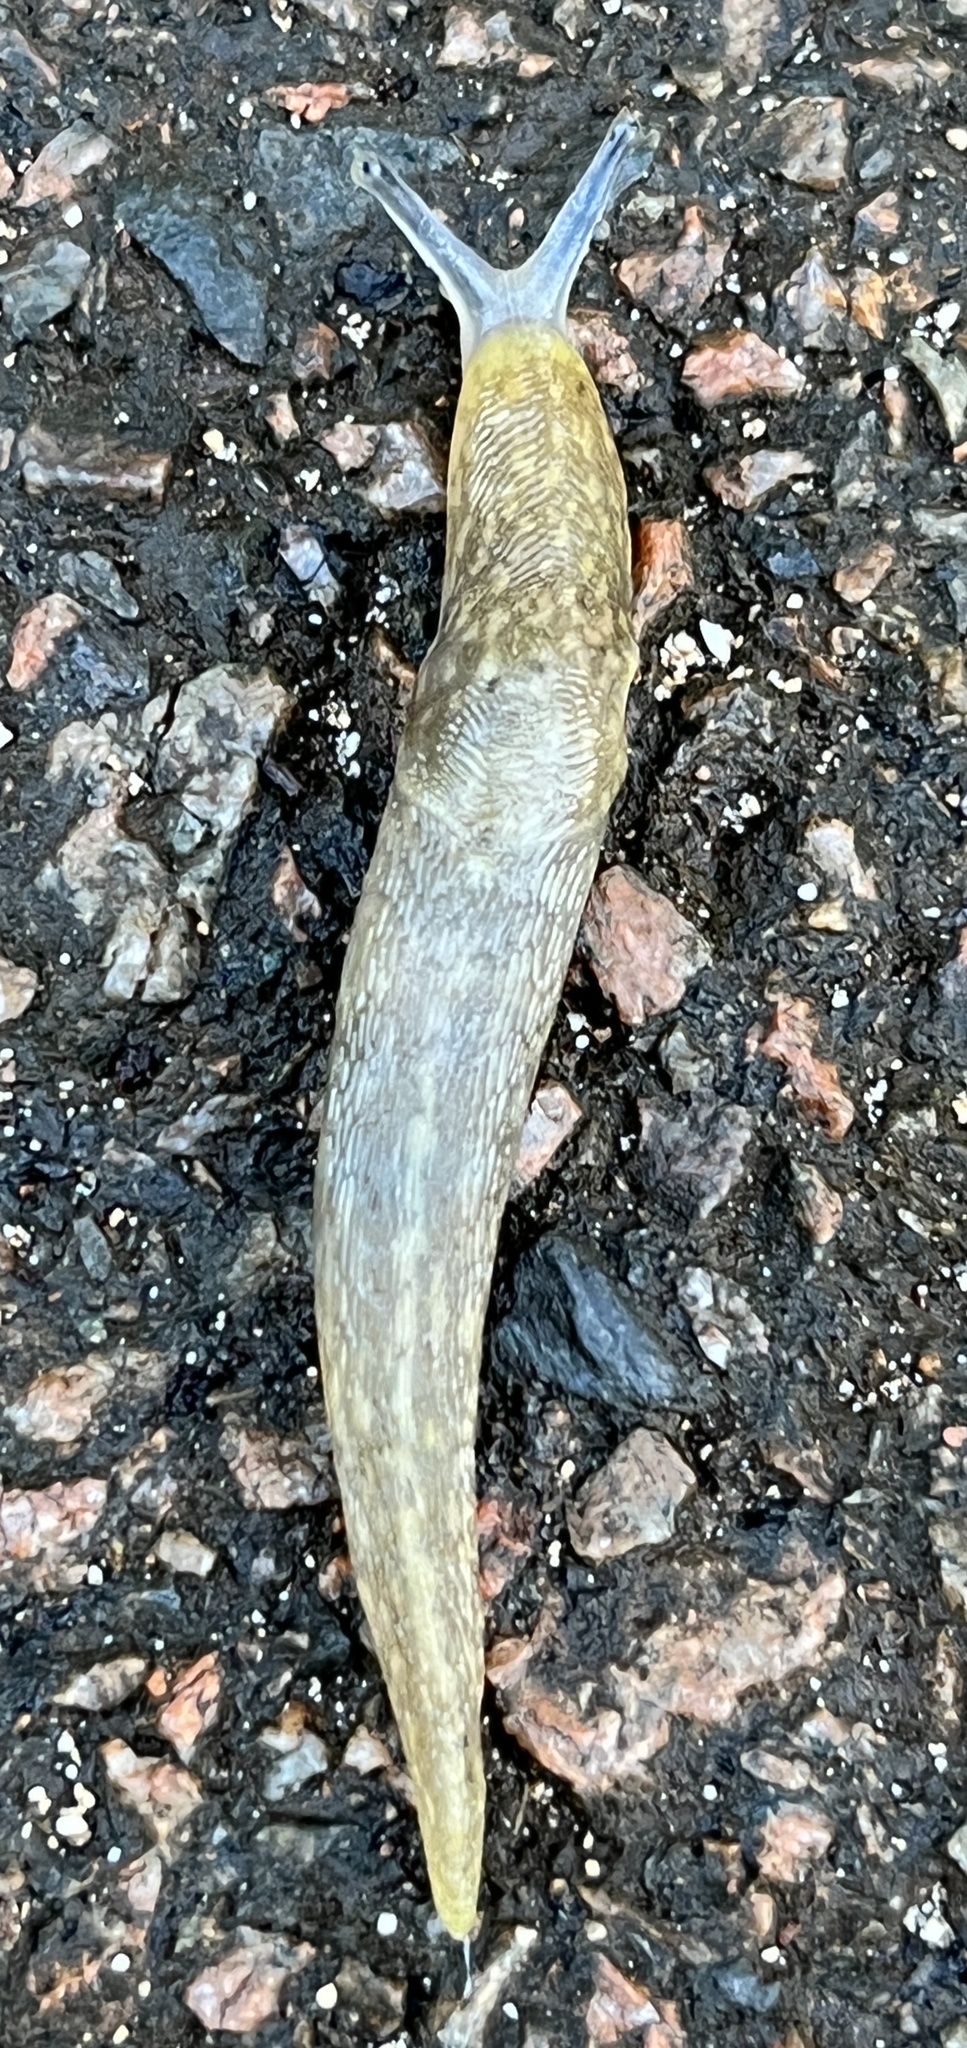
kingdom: Animalia
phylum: Mollusca
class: Gastropoda
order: Stylommatophora
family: Limacidae
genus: Limacus
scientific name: Limacus flavus
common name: Yellow gardenslug
